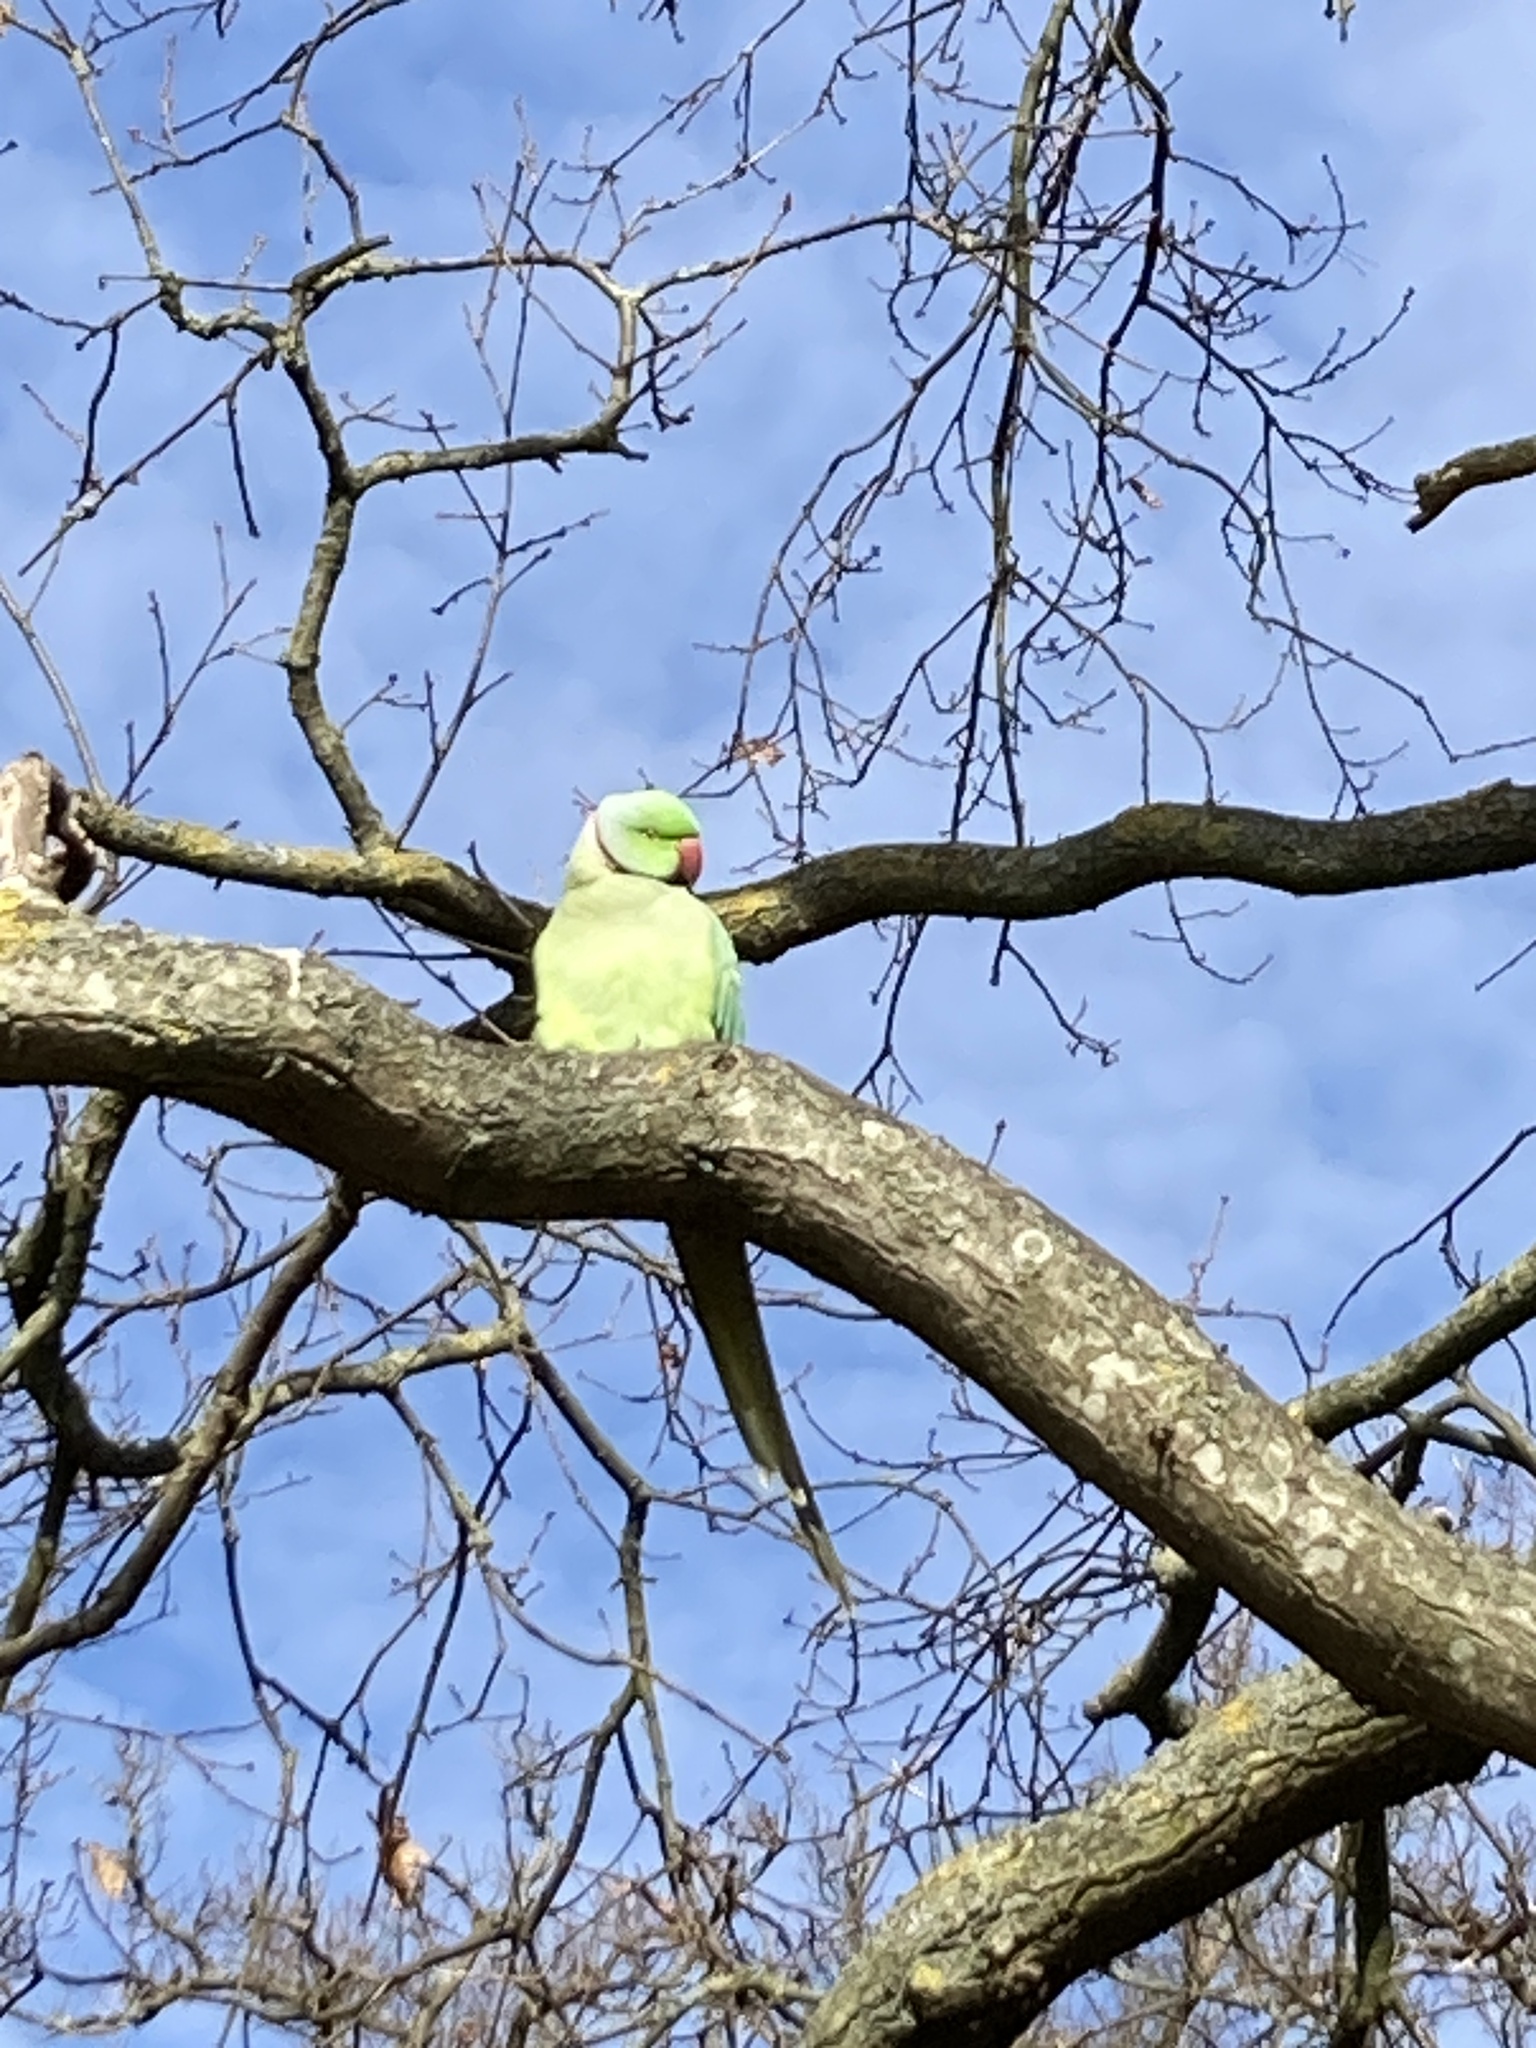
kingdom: Animalia
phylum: Chordata
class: Aves
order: Psittaciformes
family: Psittacidae
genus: Psittacula
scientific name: Psittacula krameri
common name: Rose-ringed parakeet
